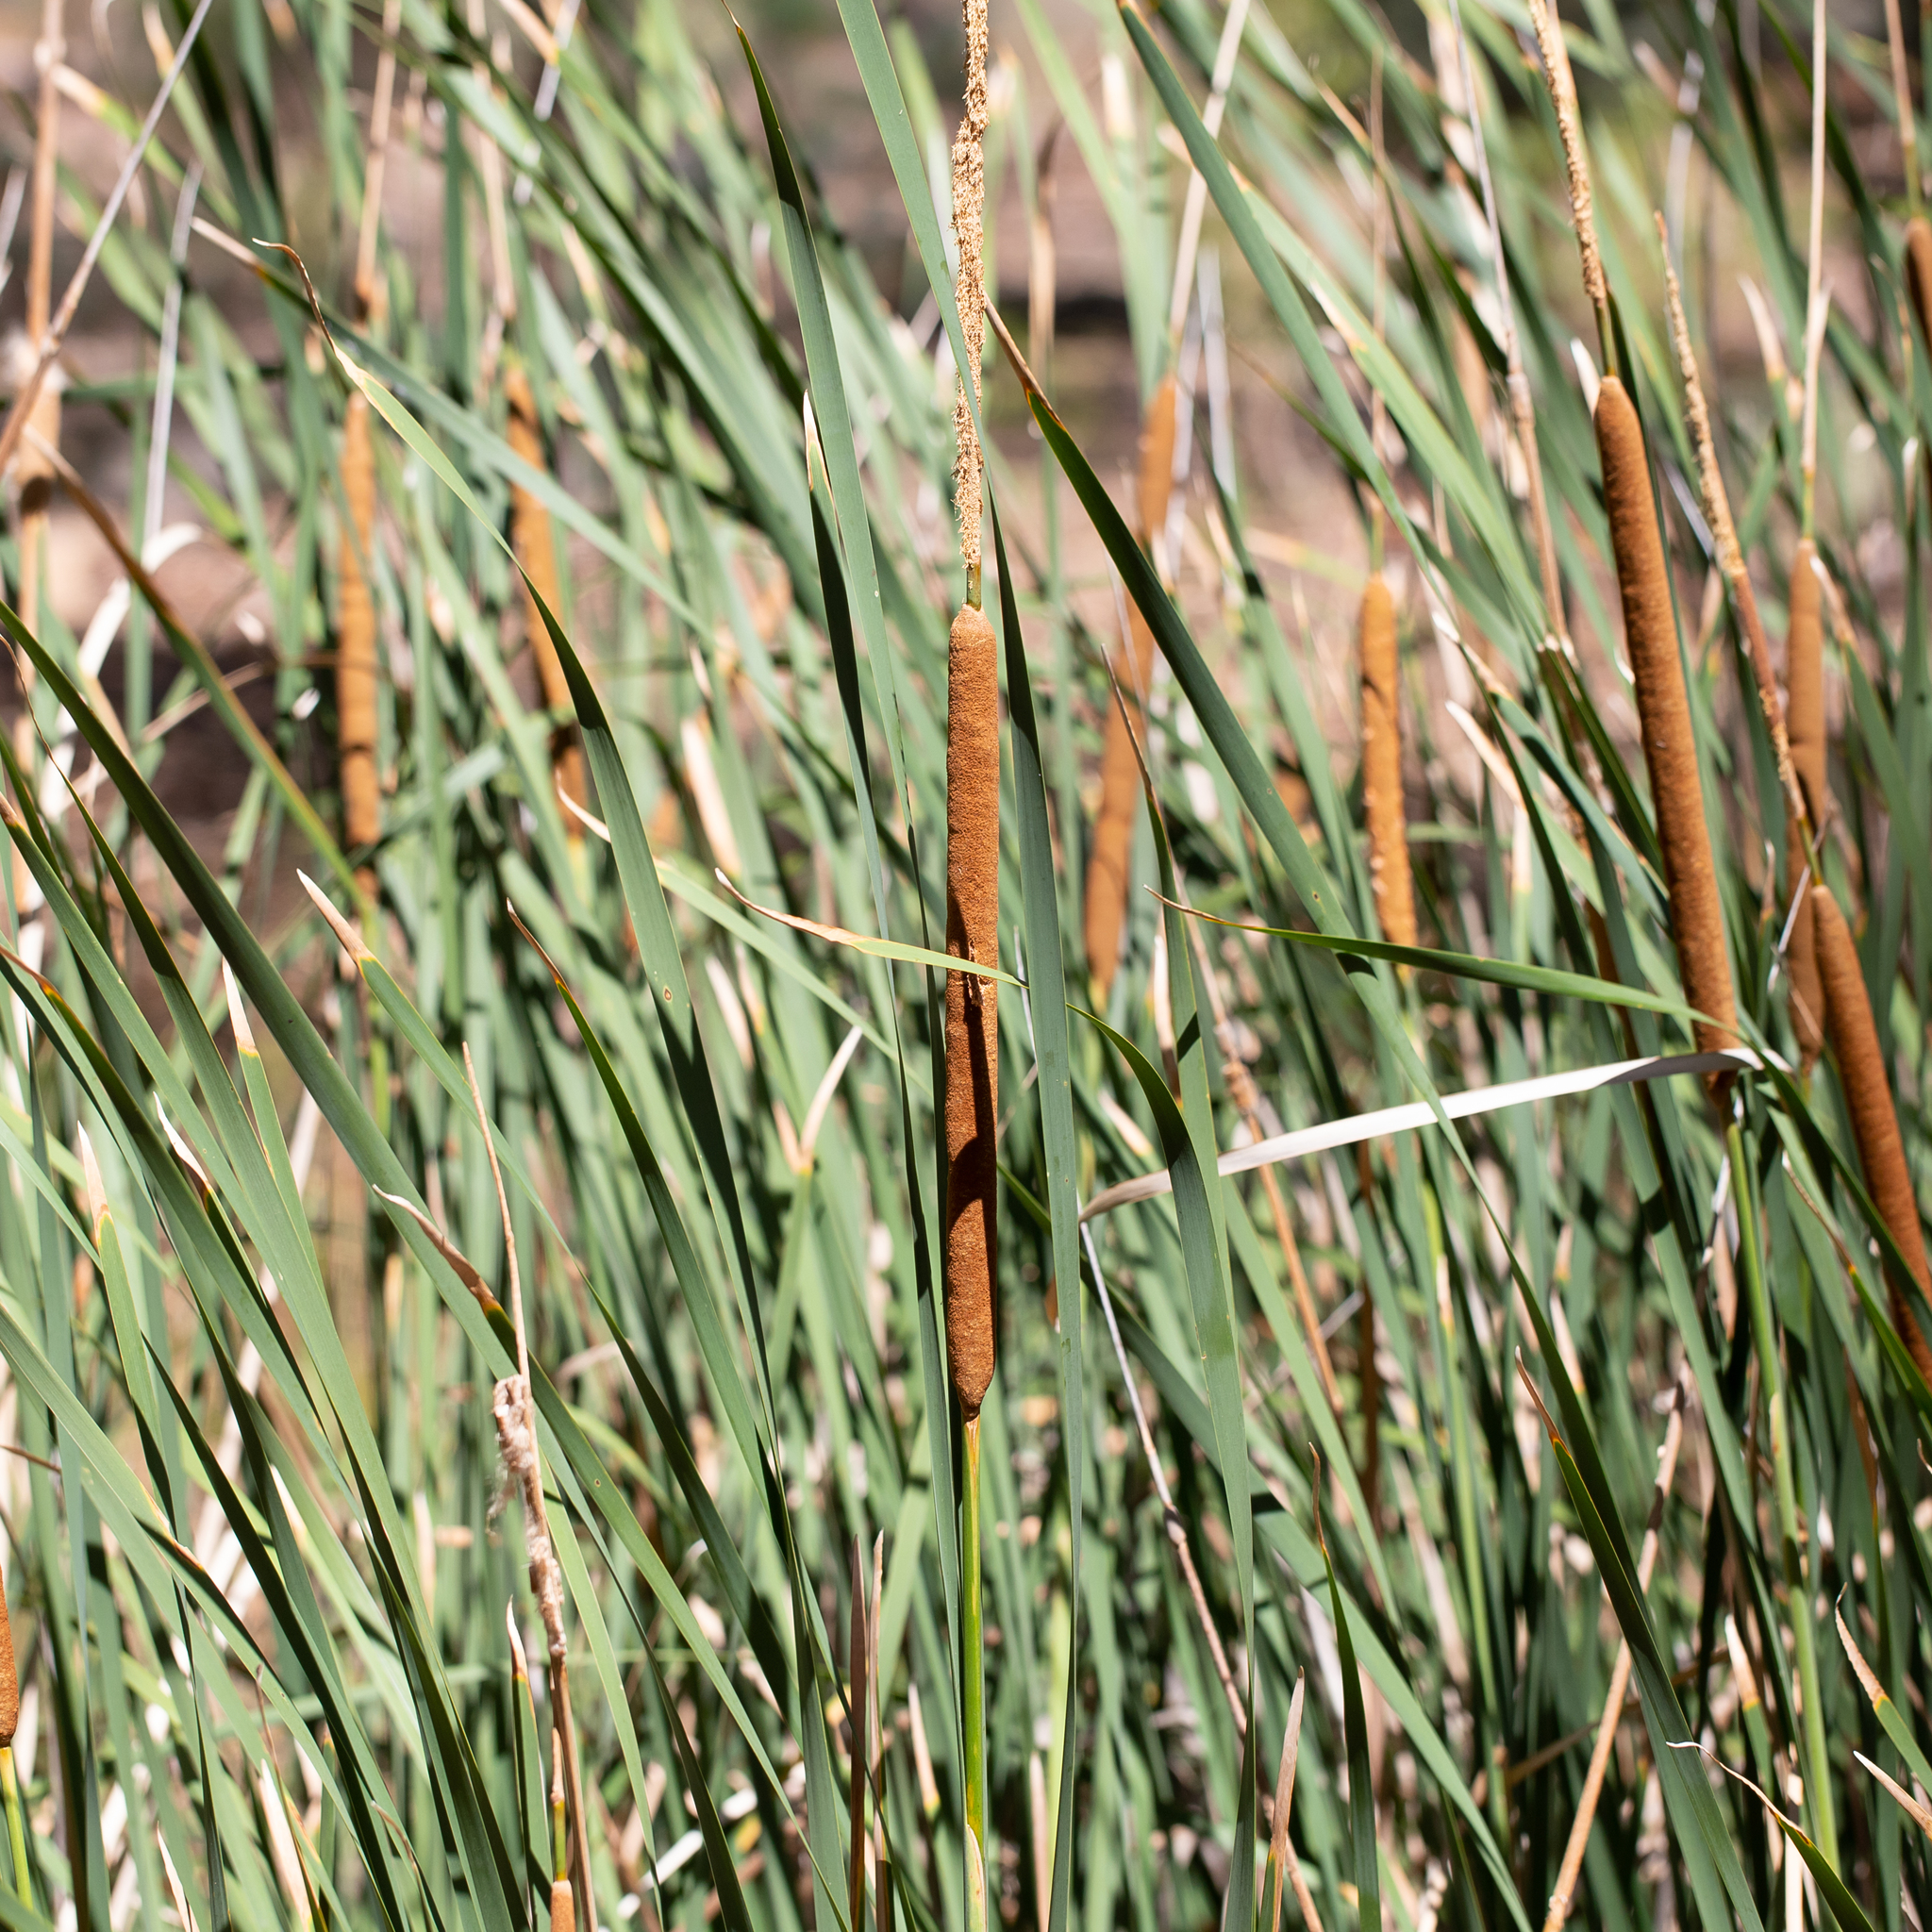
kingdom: Plantae
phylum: Tracheophyta
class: Liliopsida
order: Poales
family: Typhaceae
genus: Typha
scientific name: Typha domingensis
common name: Southern cattail
